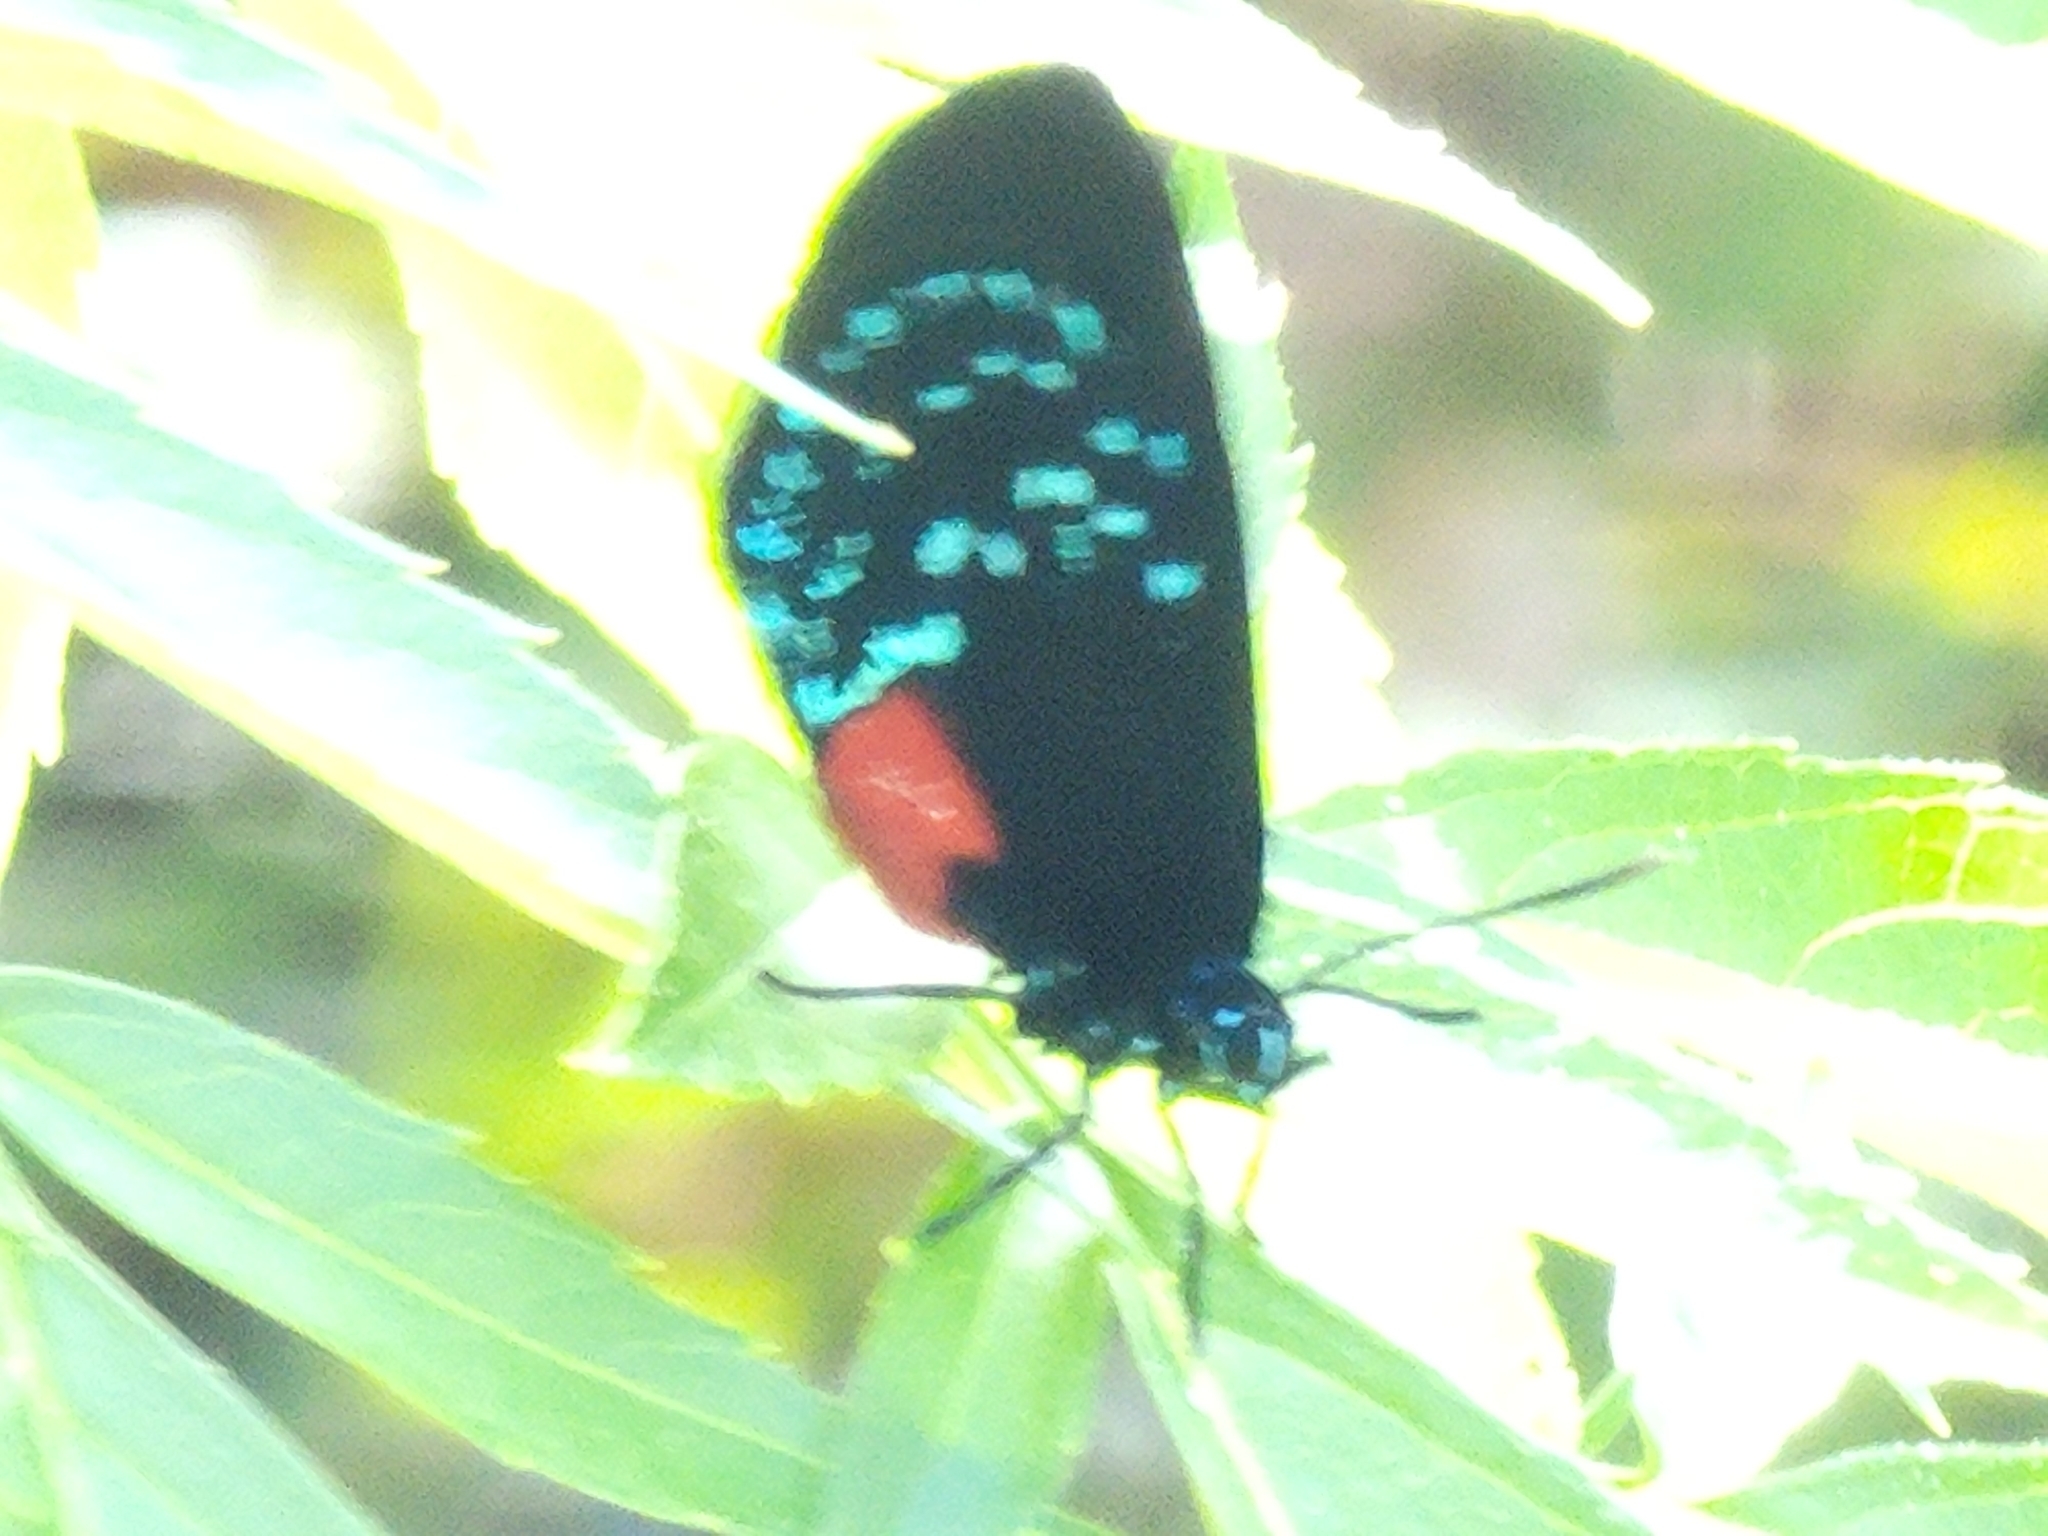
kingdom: Animalia
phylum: Arthropoda
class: Insecta
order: Lepidoptera
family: Lycaenidae
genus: Eumaeus
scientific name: Eumaeus atala
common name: Atala
